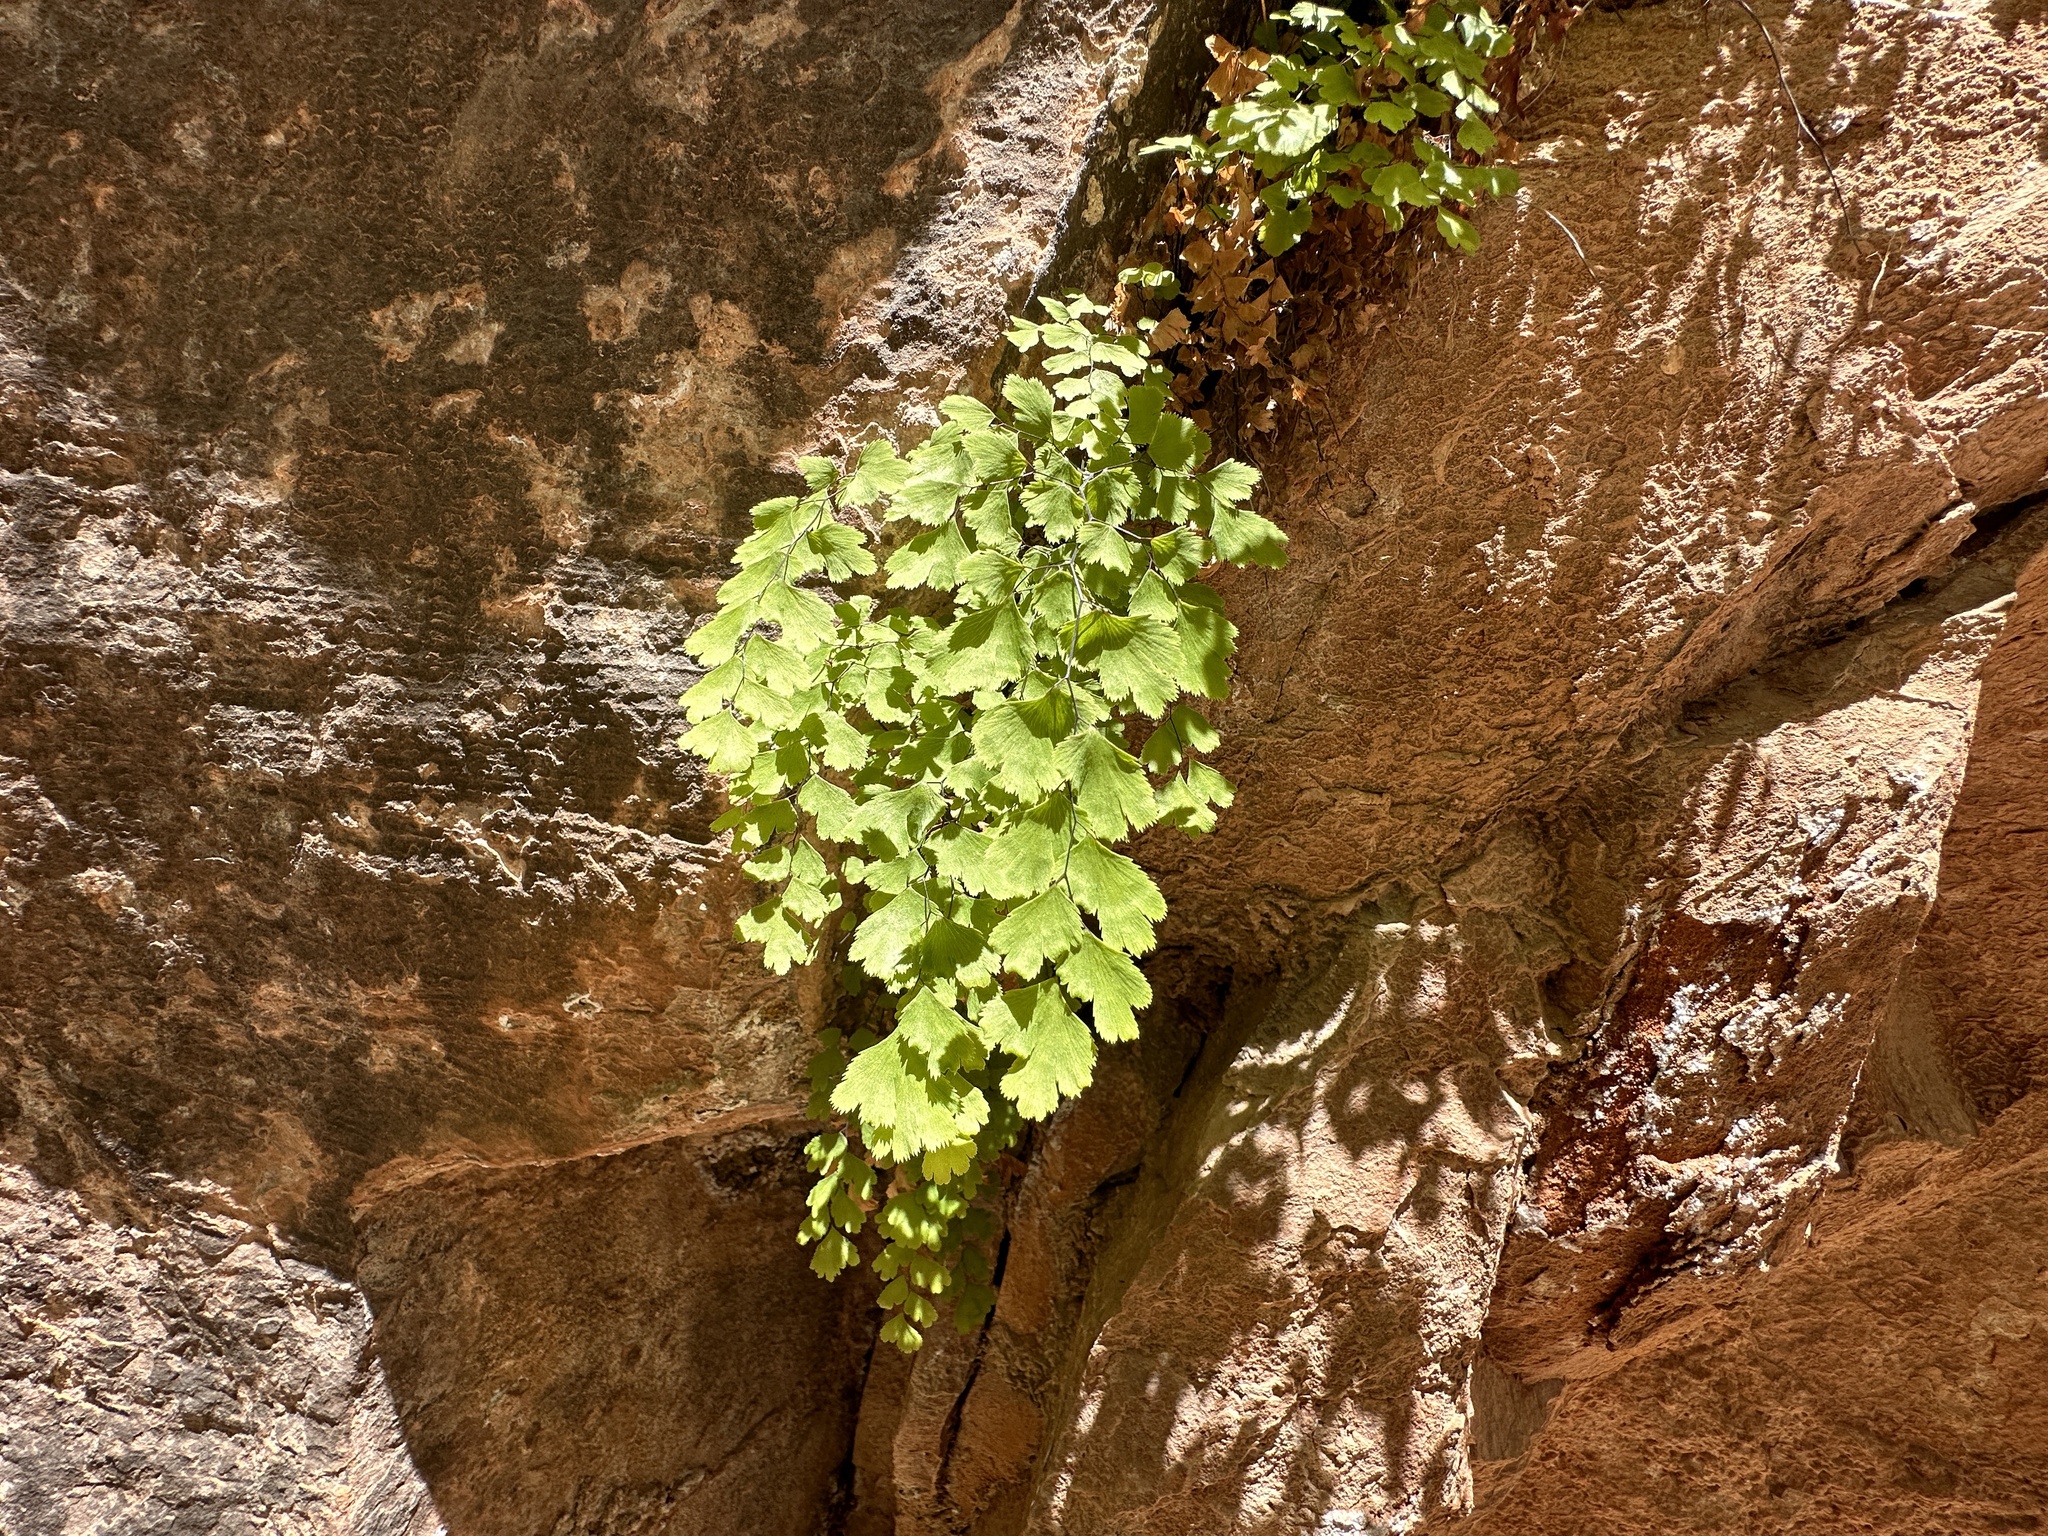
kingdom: Plantae
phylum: Tracheophyta
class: Polypodiopsida
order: Polypodiales
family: Pteridaceae
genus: Adiantum
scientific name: Adiantum capillus-veneris
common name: Maidenhair fern
